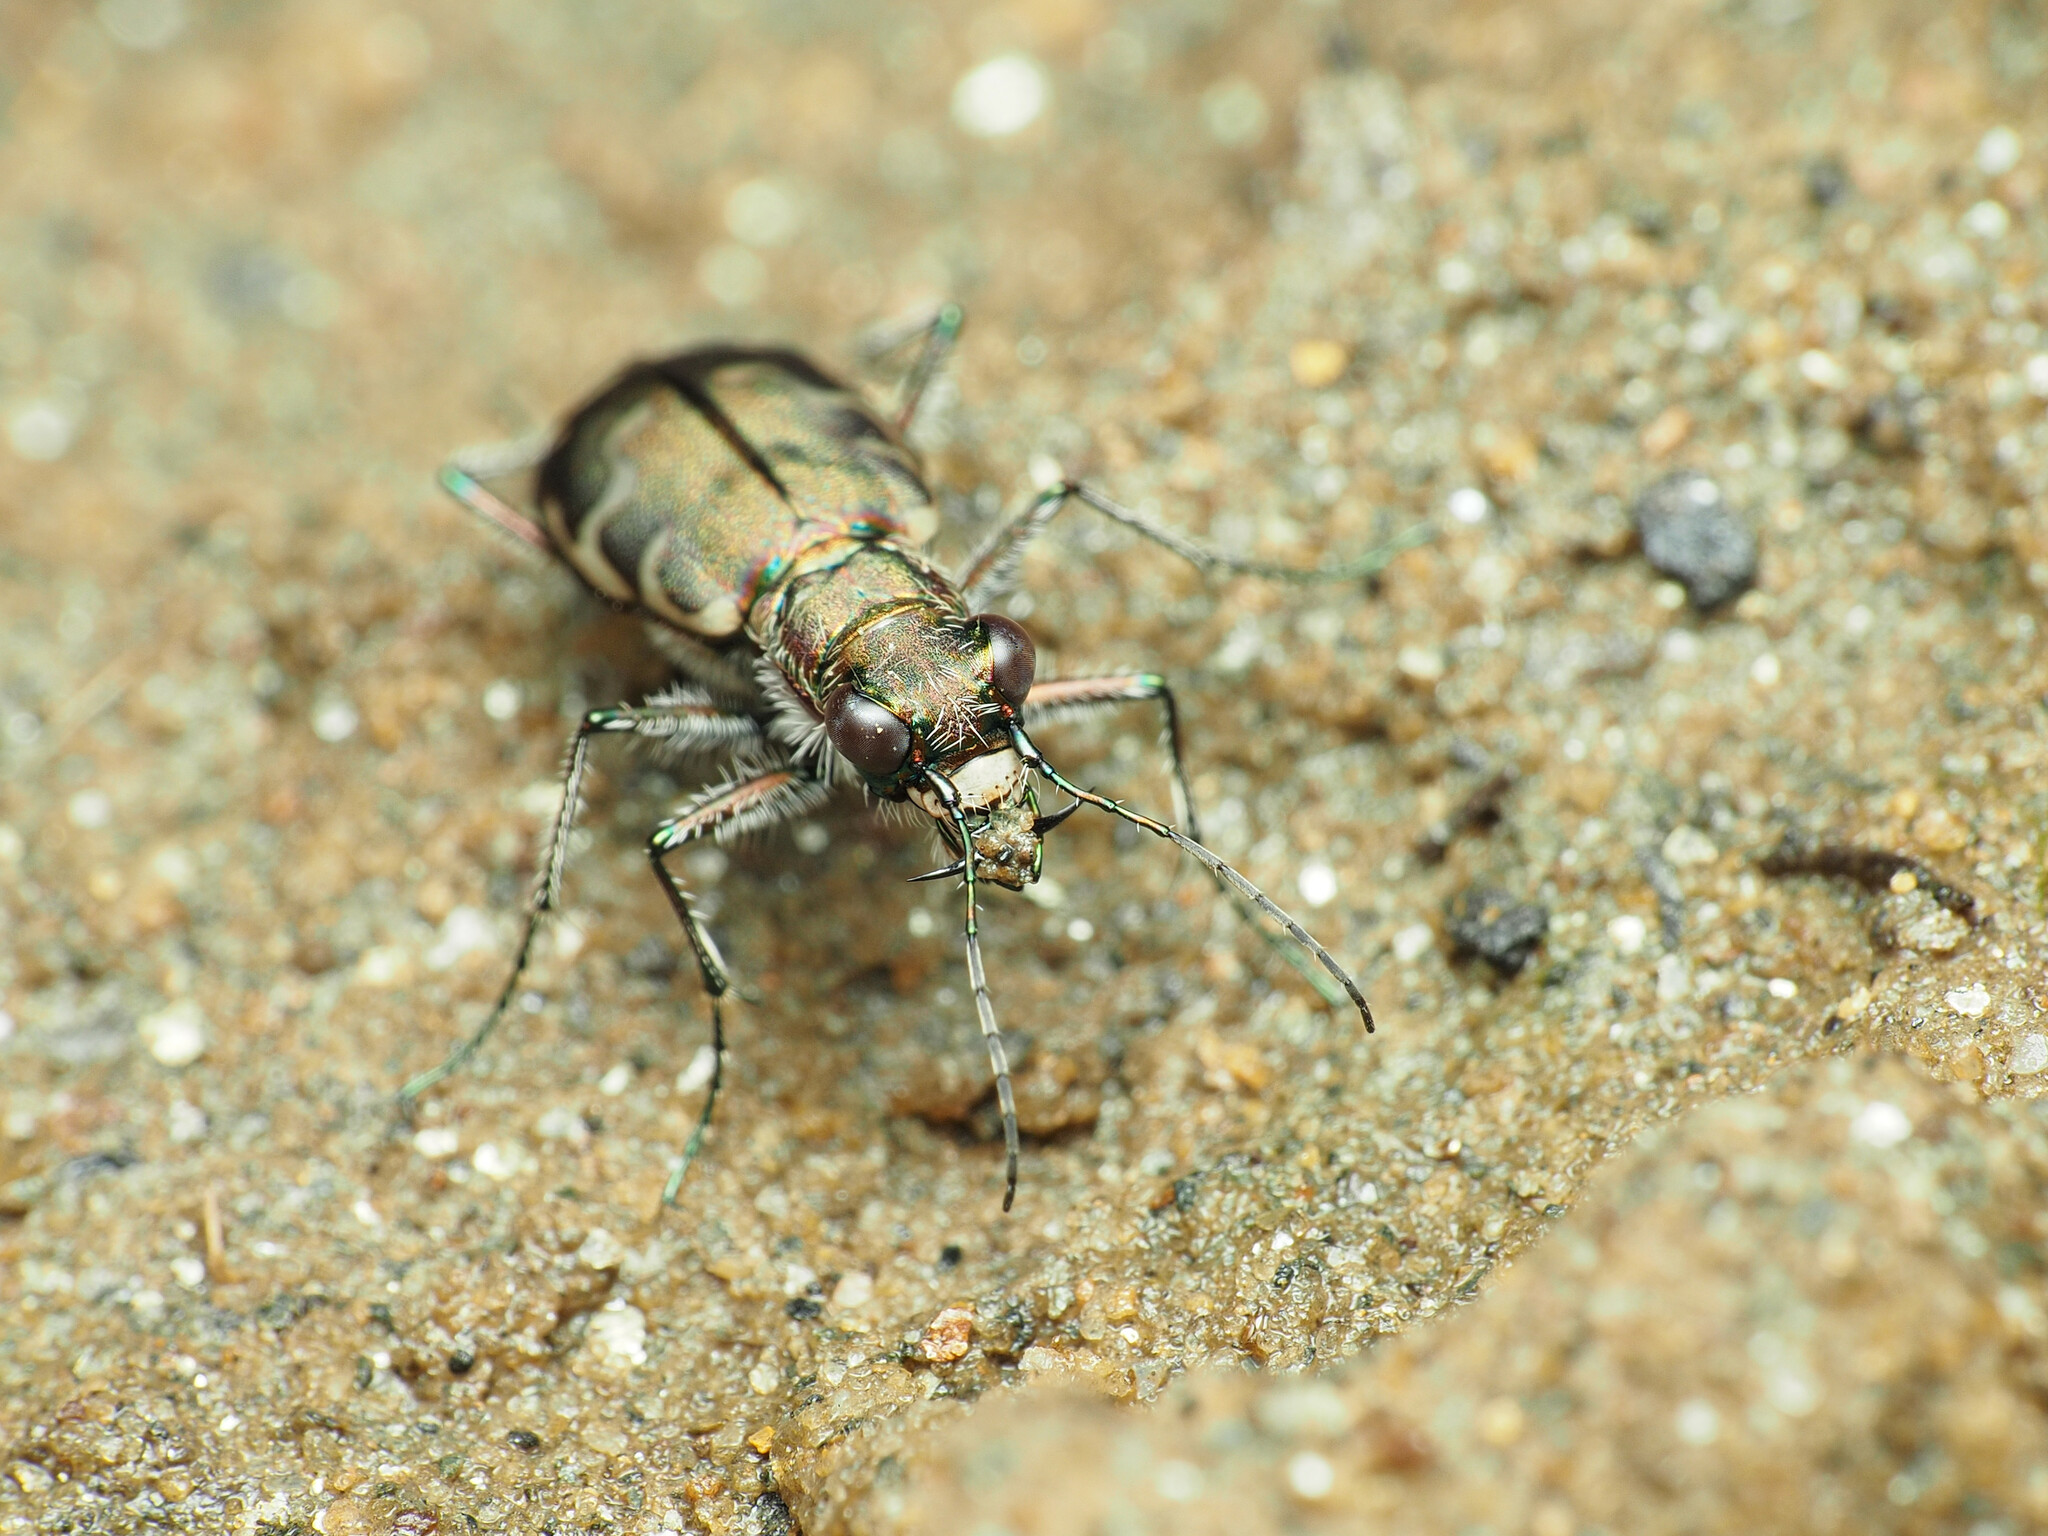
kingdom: Animalia
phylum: Arthropoda
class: Insecta
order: Coleoptera
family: Carabidae
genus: Cicindela
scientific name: Cicindela repanda
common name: Bronzed tiger beetle
